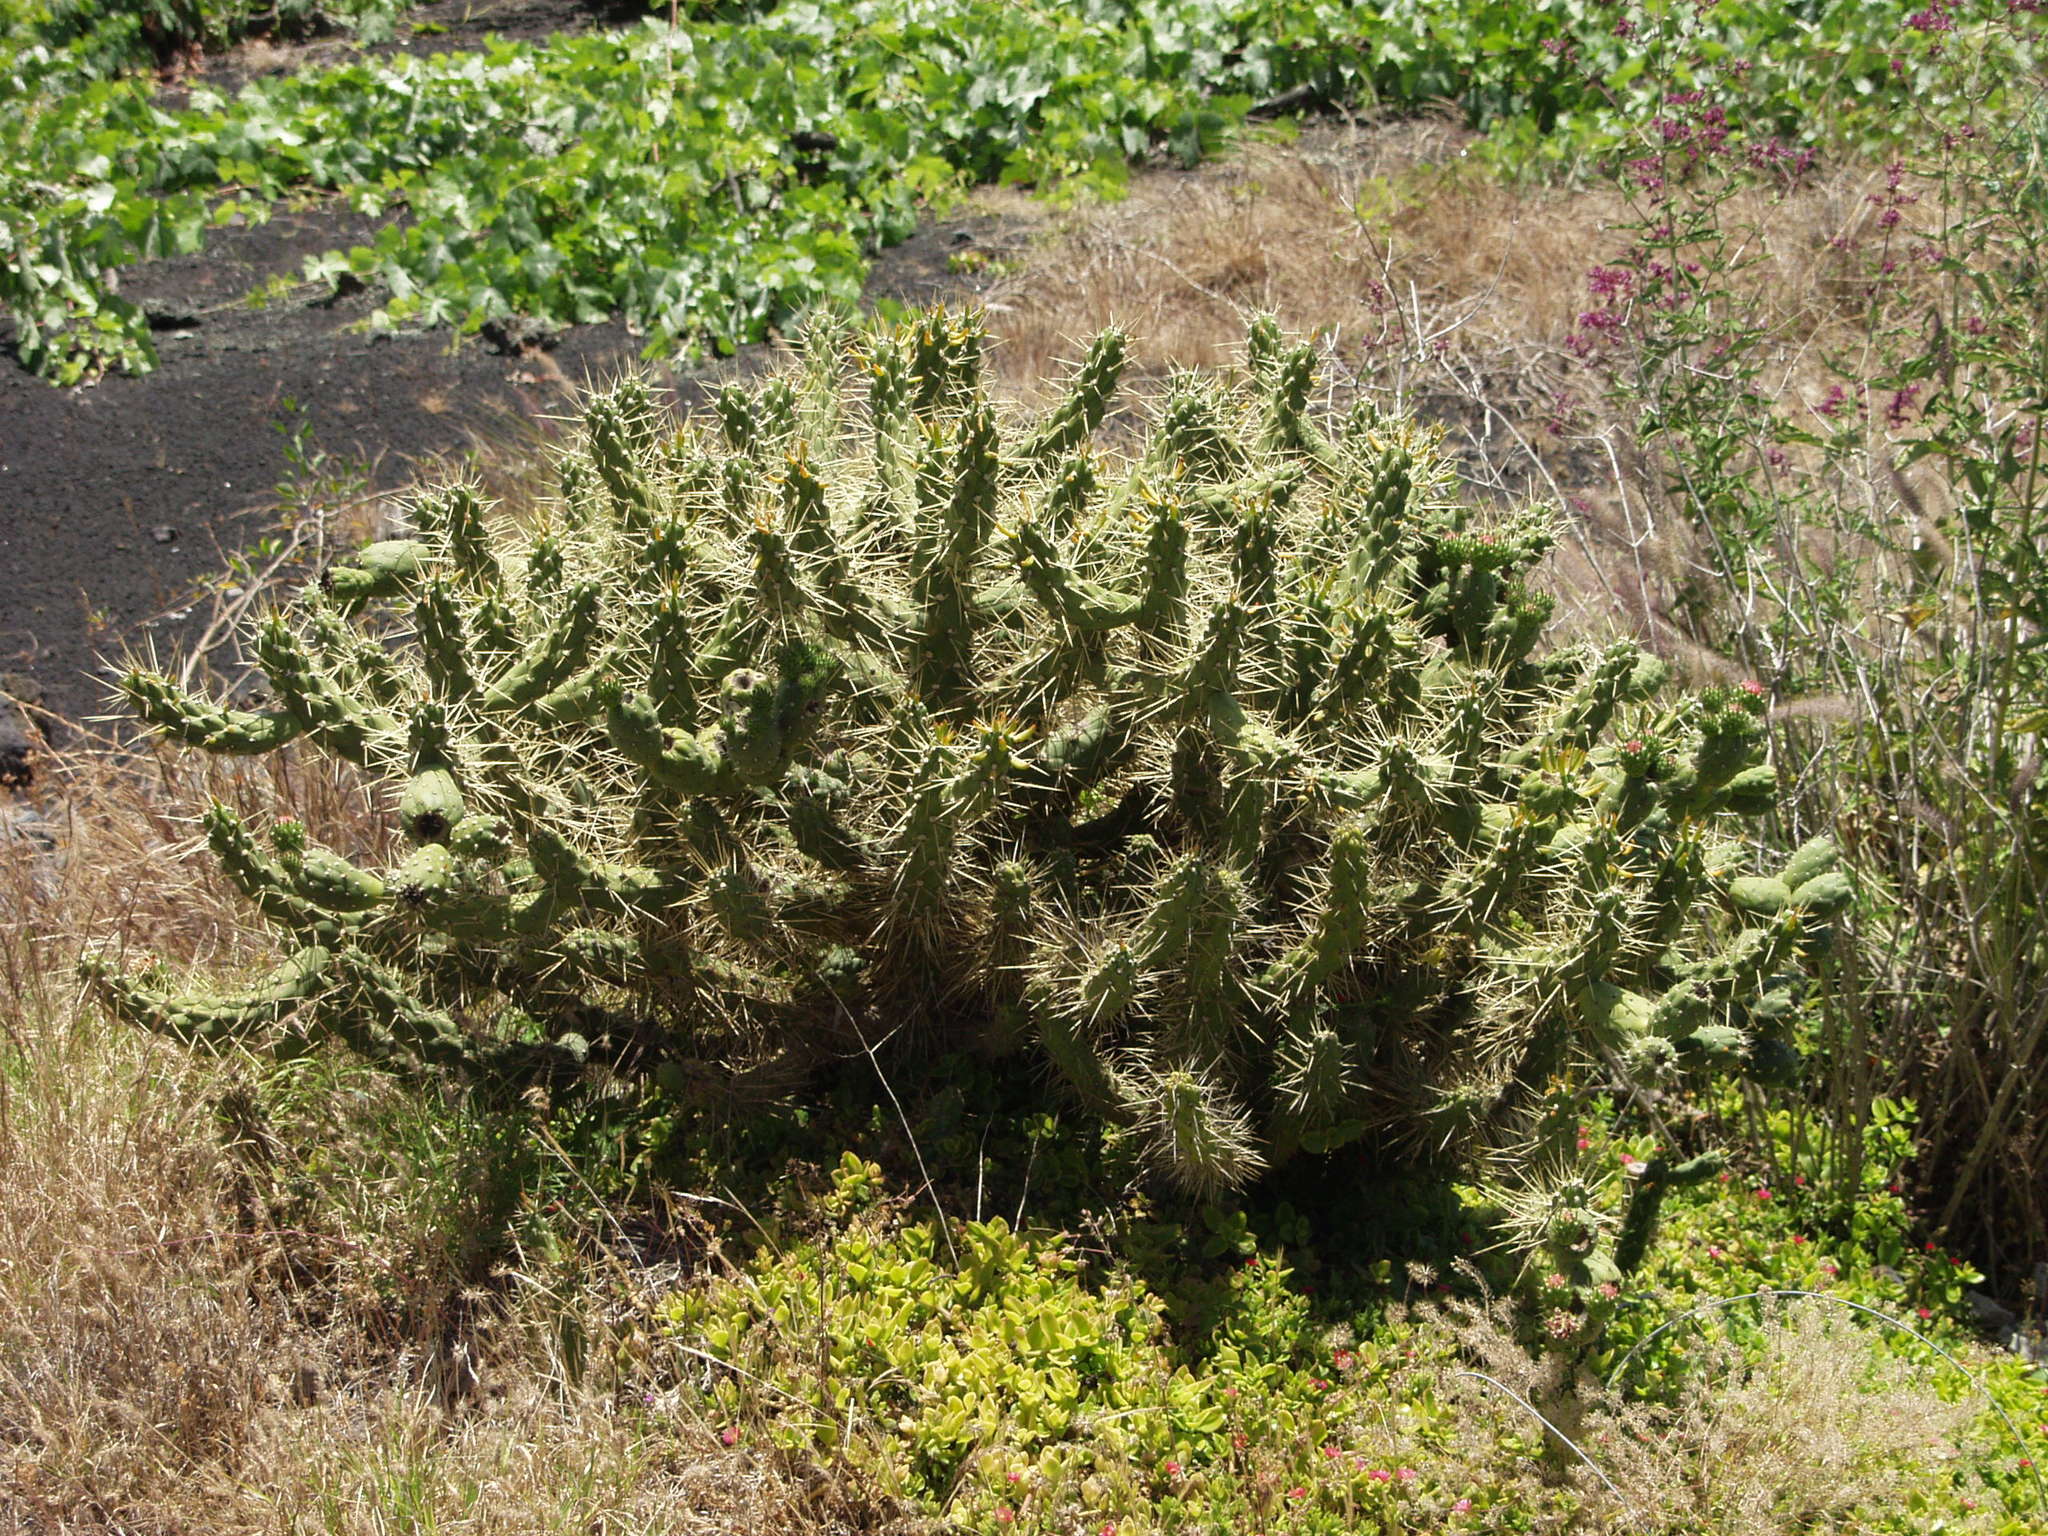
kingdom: Plantae
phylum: Tracheophyta
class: Magnoliopsida
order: Caryophyllales
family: Cactaceae
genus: Austrocylindropuntia
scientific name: Austrocylindropuntia subulata
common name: Eve's needle cactus
